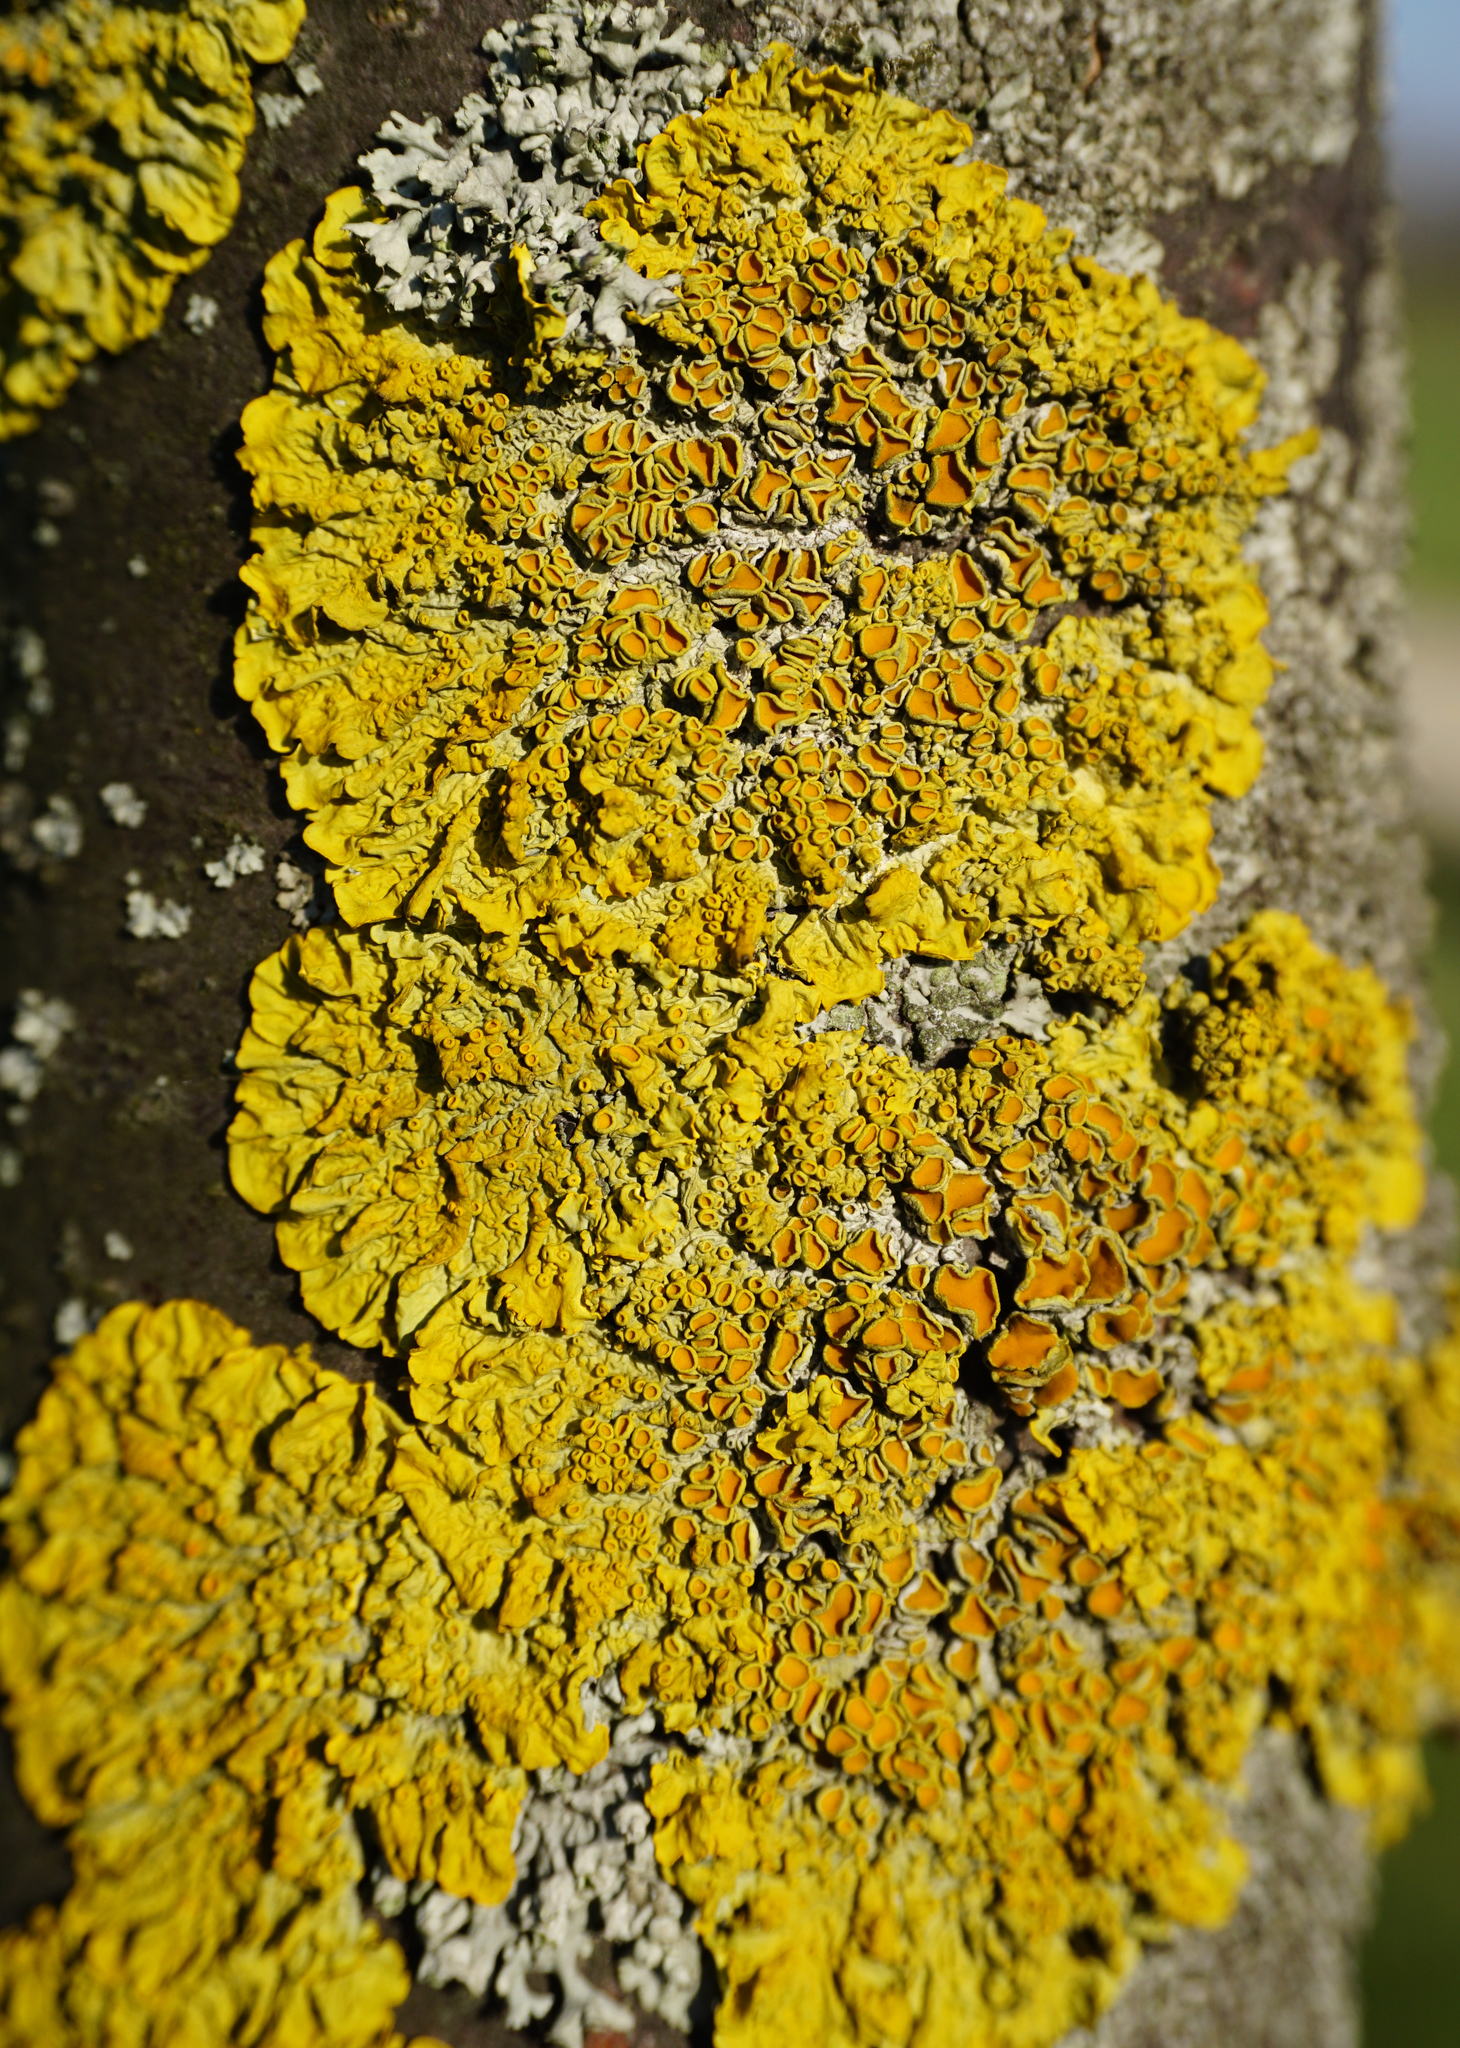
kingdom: Fungi
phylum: Ascomycota
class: Lecanoromycetes
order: Teloschistales
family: Teloschistaceae
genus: Xanthoria
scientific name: Xanthoria parietina
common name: Common orange lichen
